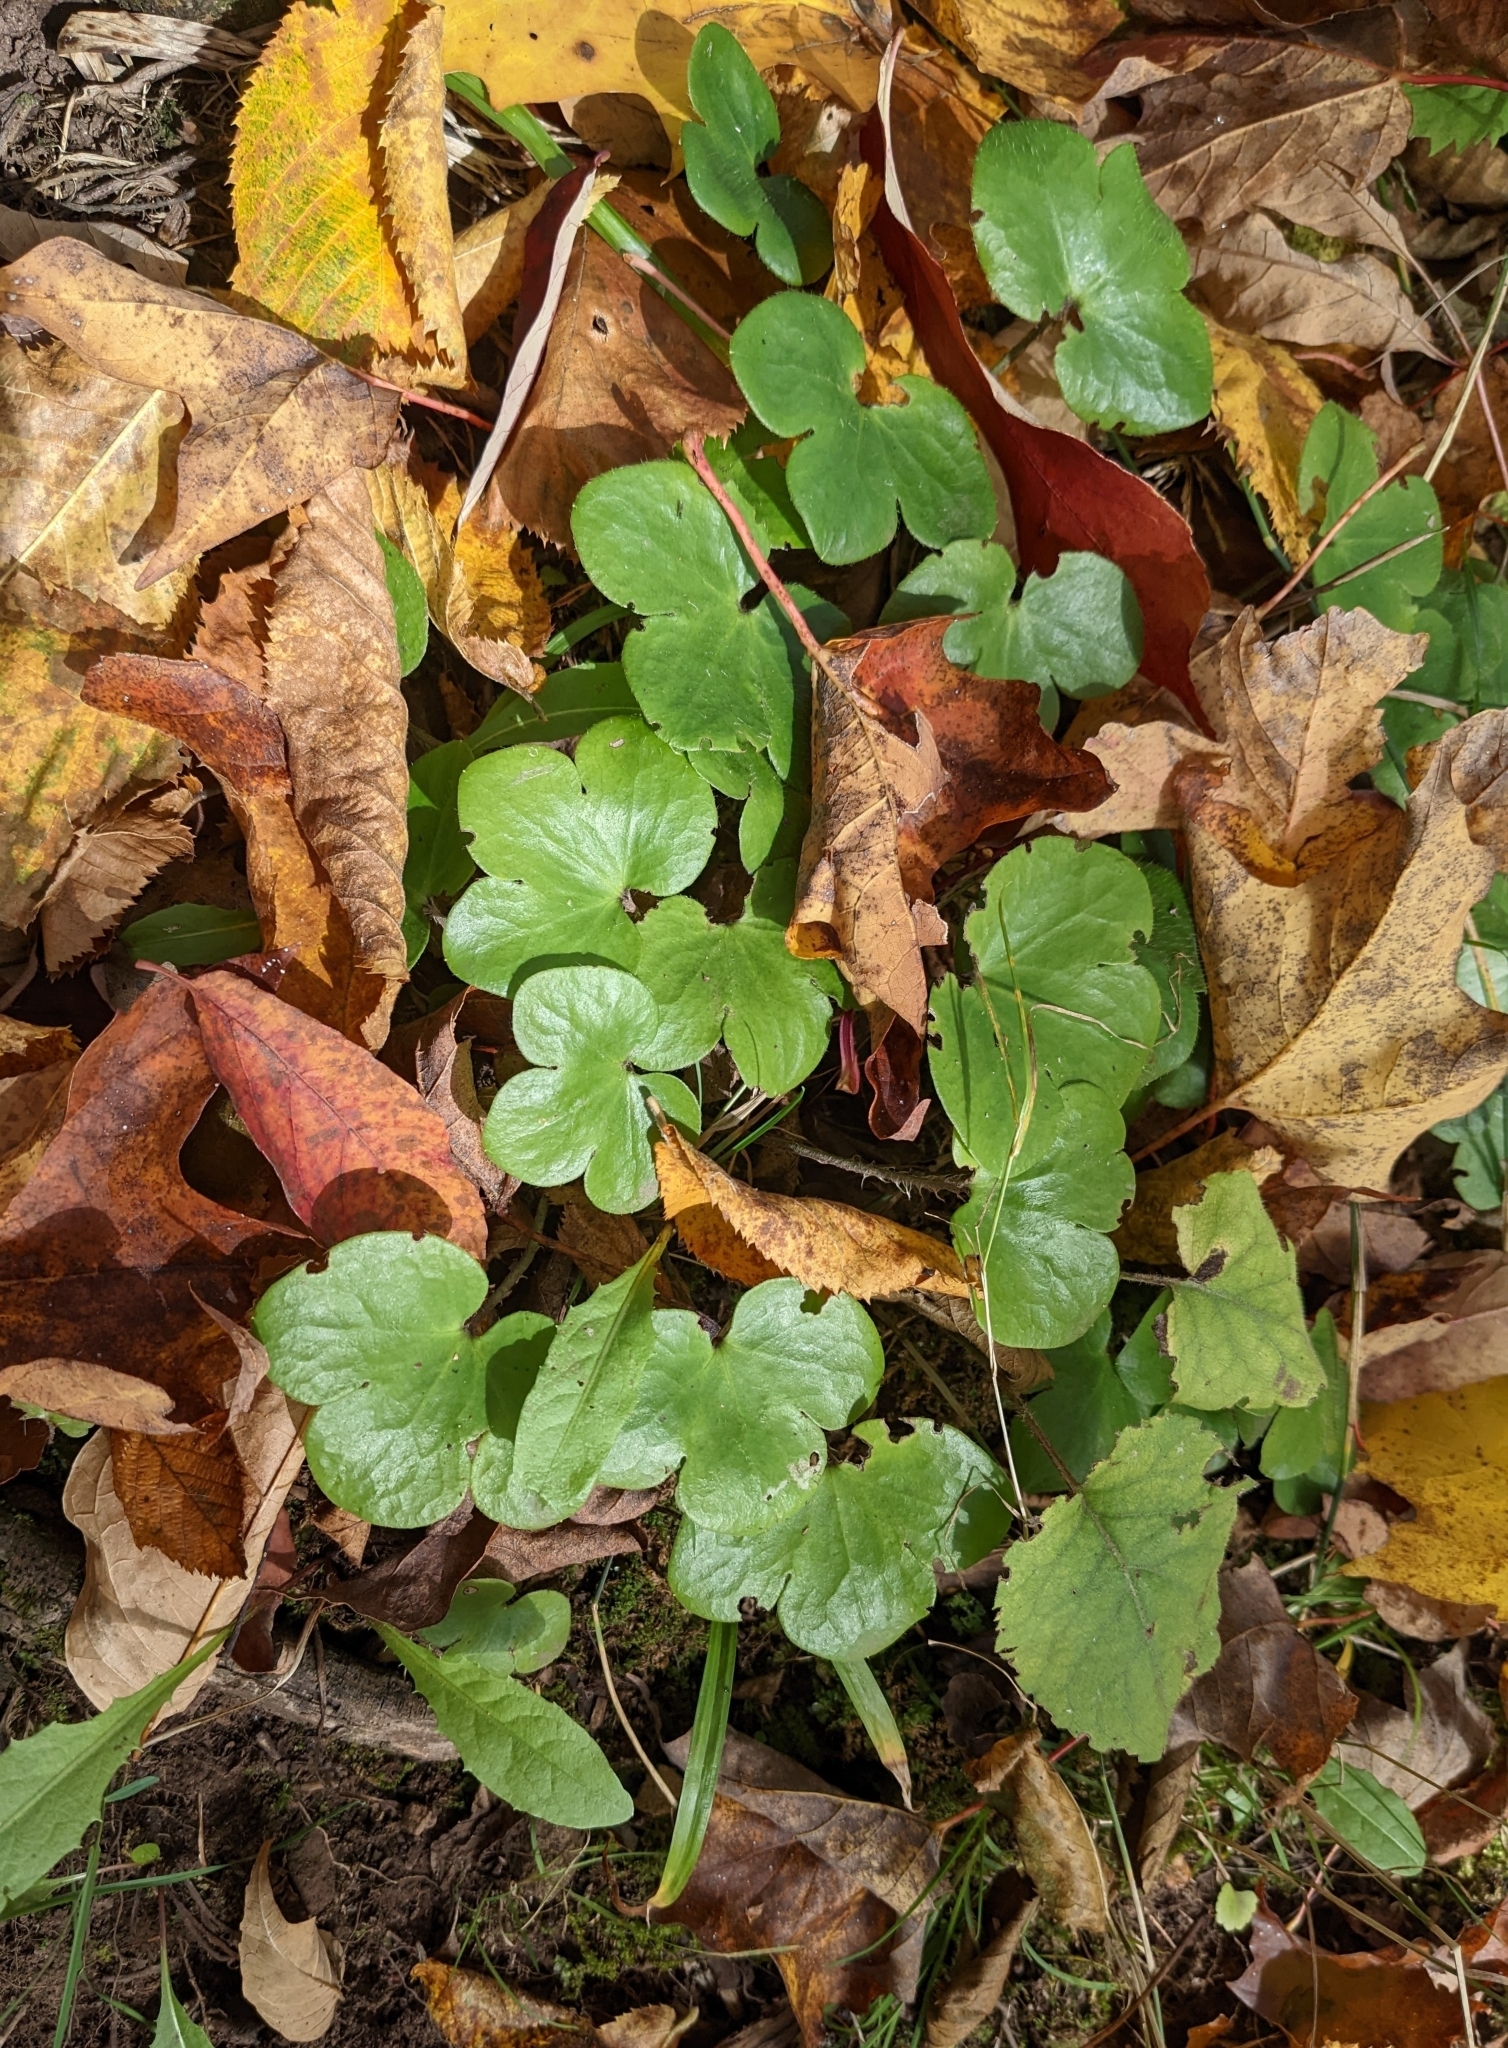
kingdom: Plantae
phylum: Tracheophyta
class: Magnoliopsida
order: Ranunculales
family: Ranunculaceae
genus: Hepatica
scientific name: Hepatica americana
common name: American hepatica
